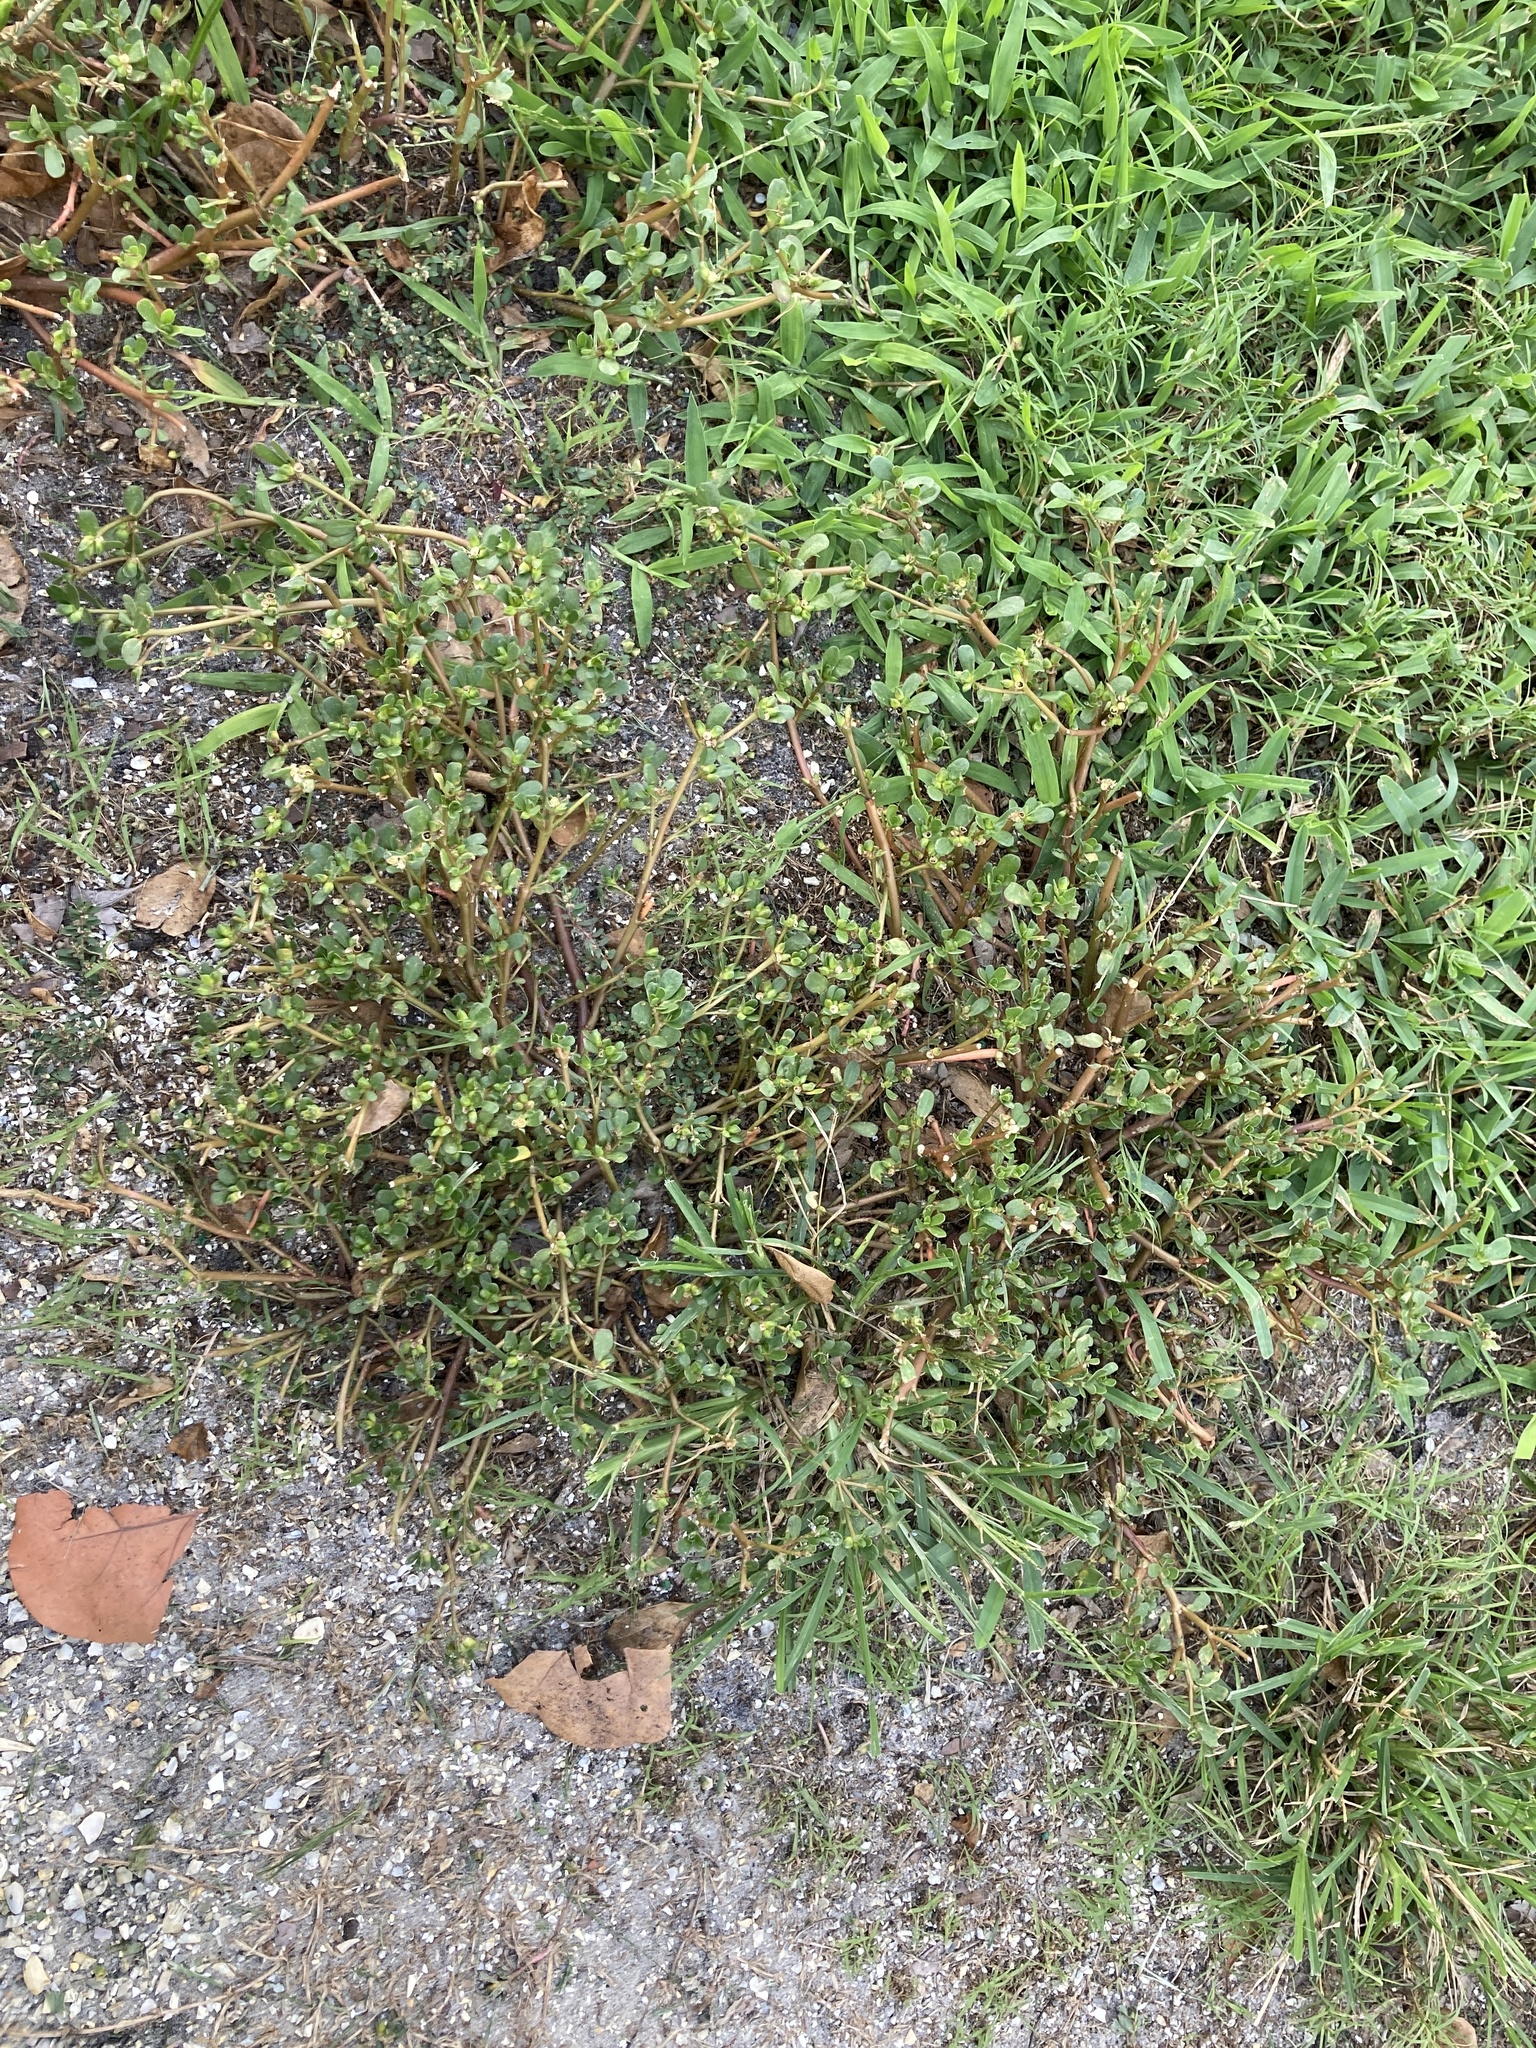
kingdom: Plantae
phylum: Tracheophyta
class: Magnoliopsida
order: Caryophyllales
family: Portulacaceae
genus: Portulaca
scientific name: Portulaca oleracea
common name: Common purslane
